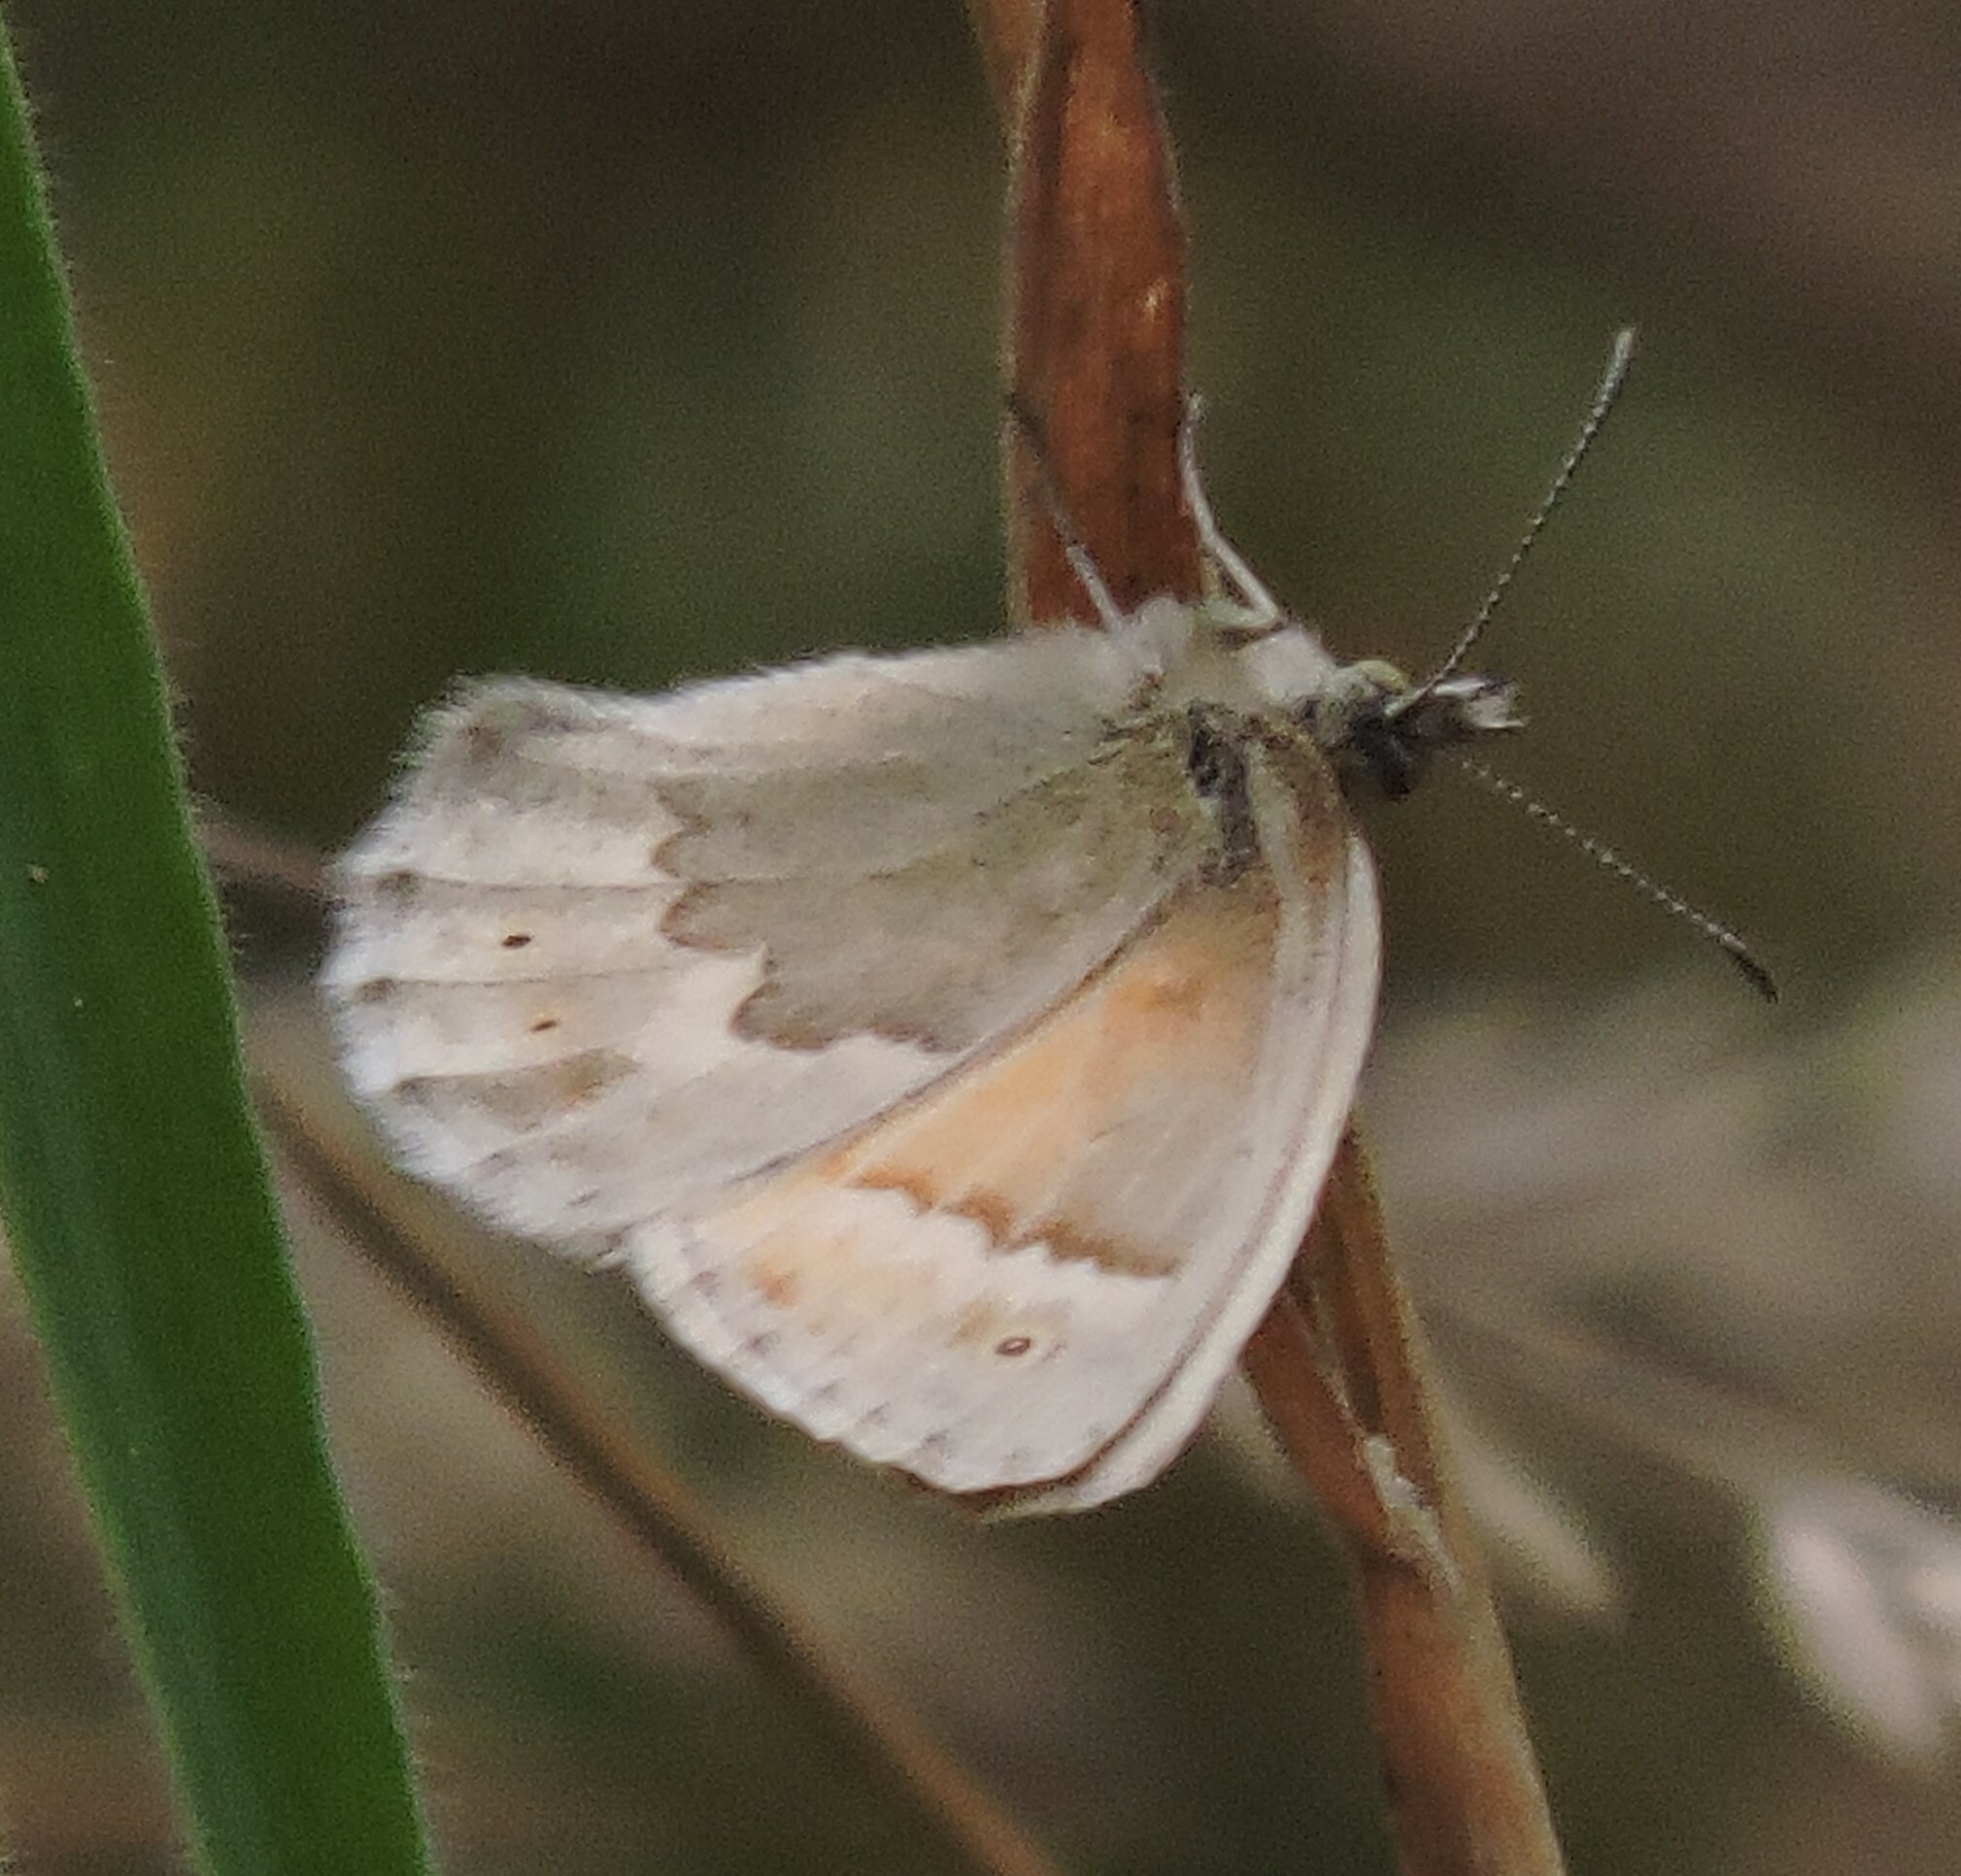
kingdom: Animalia
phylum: Arthropoda
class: Insecta
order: Lepidoptera
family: Nymphalidae
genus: Coenonympha
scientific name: Coenonympha california
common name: Common ringlet
